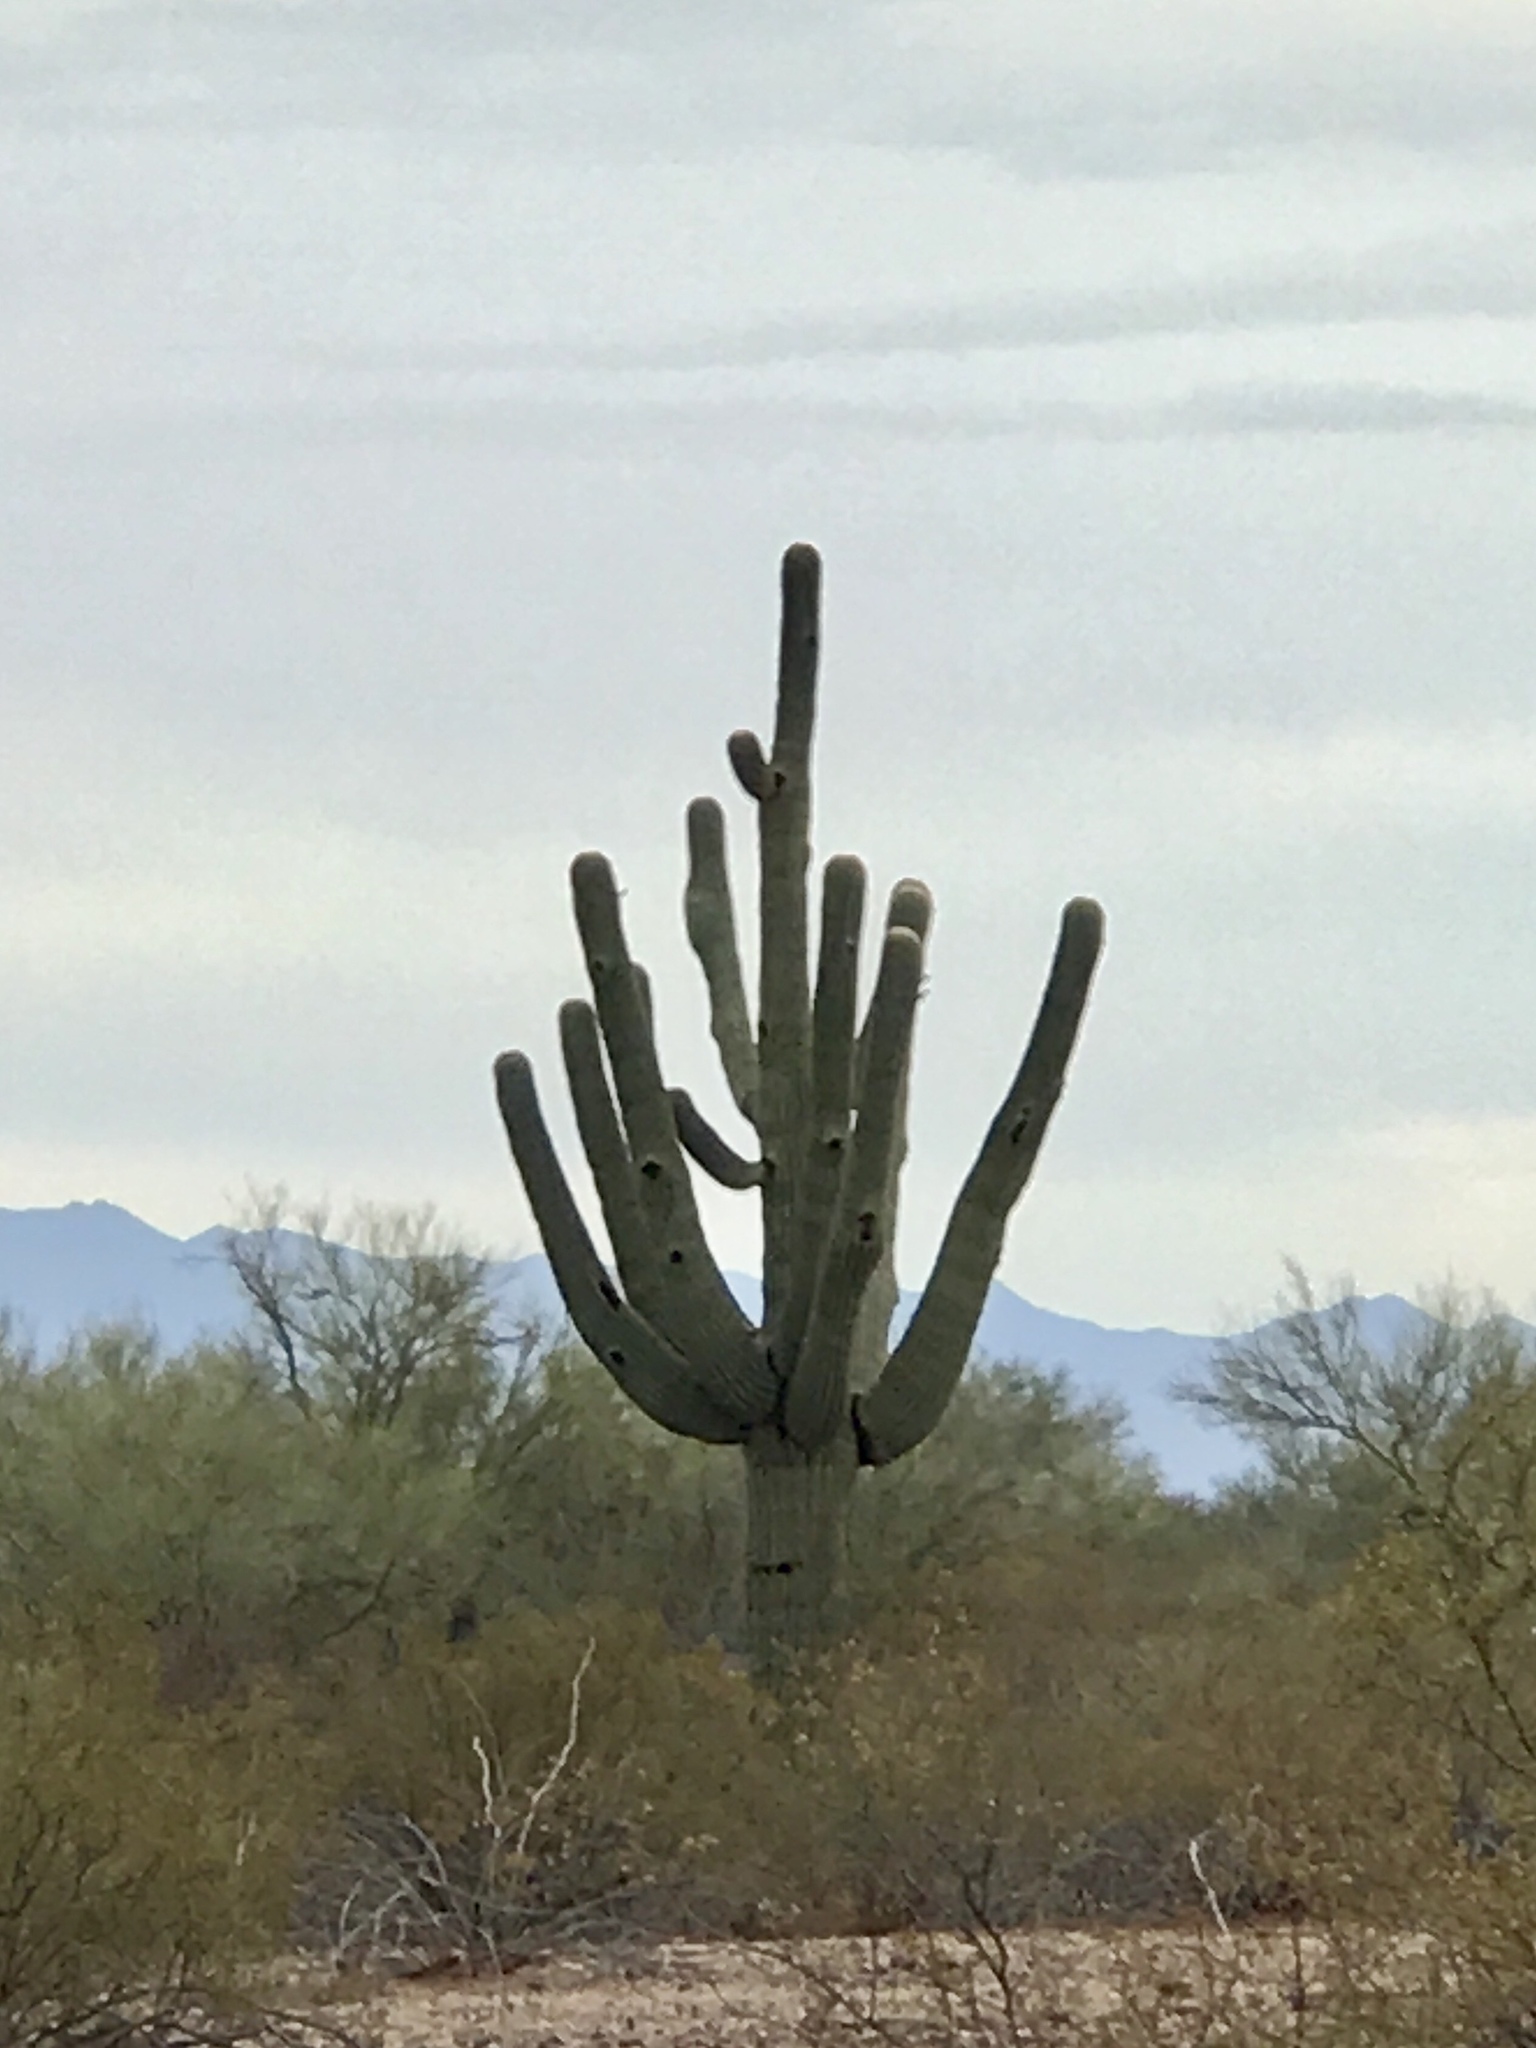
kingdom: Plantae
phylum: Tracheophyta
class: Magnoliopsida
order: Caryophyllales
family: Cactaceae
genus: Carnegiea
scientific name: Carnegiea gigantea
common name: Saguaro
